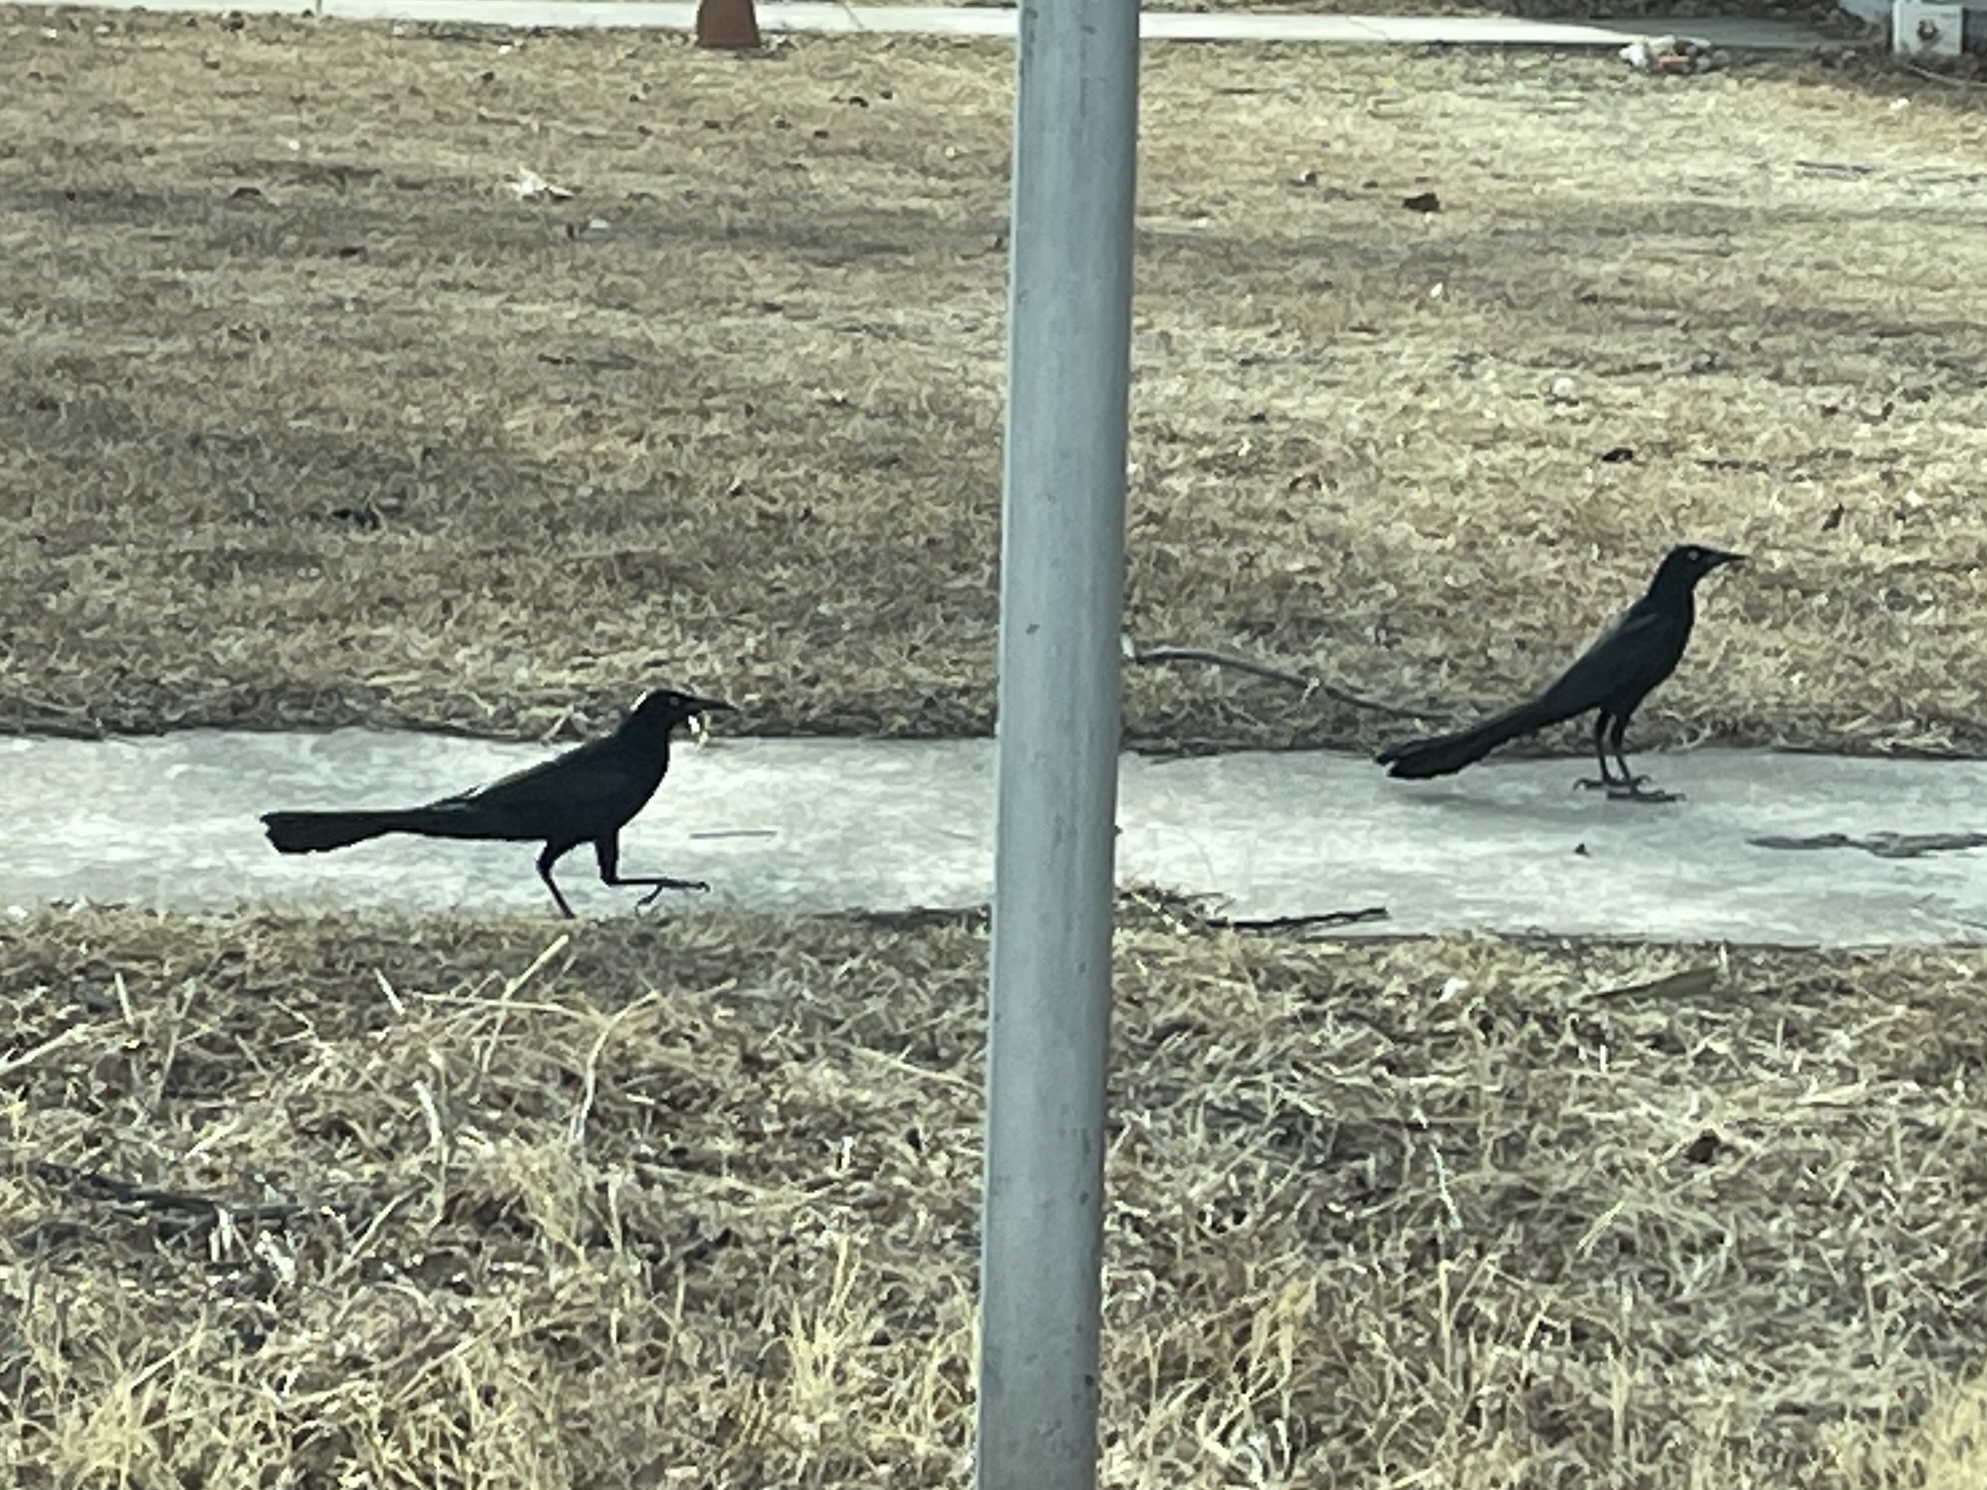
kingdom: Animalia
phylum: Chordata
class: Aves
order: Passeriformes
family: Icteridae
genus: Quiscalus
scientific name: Quiscalus mexicanus
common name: Great-tailed grackle
